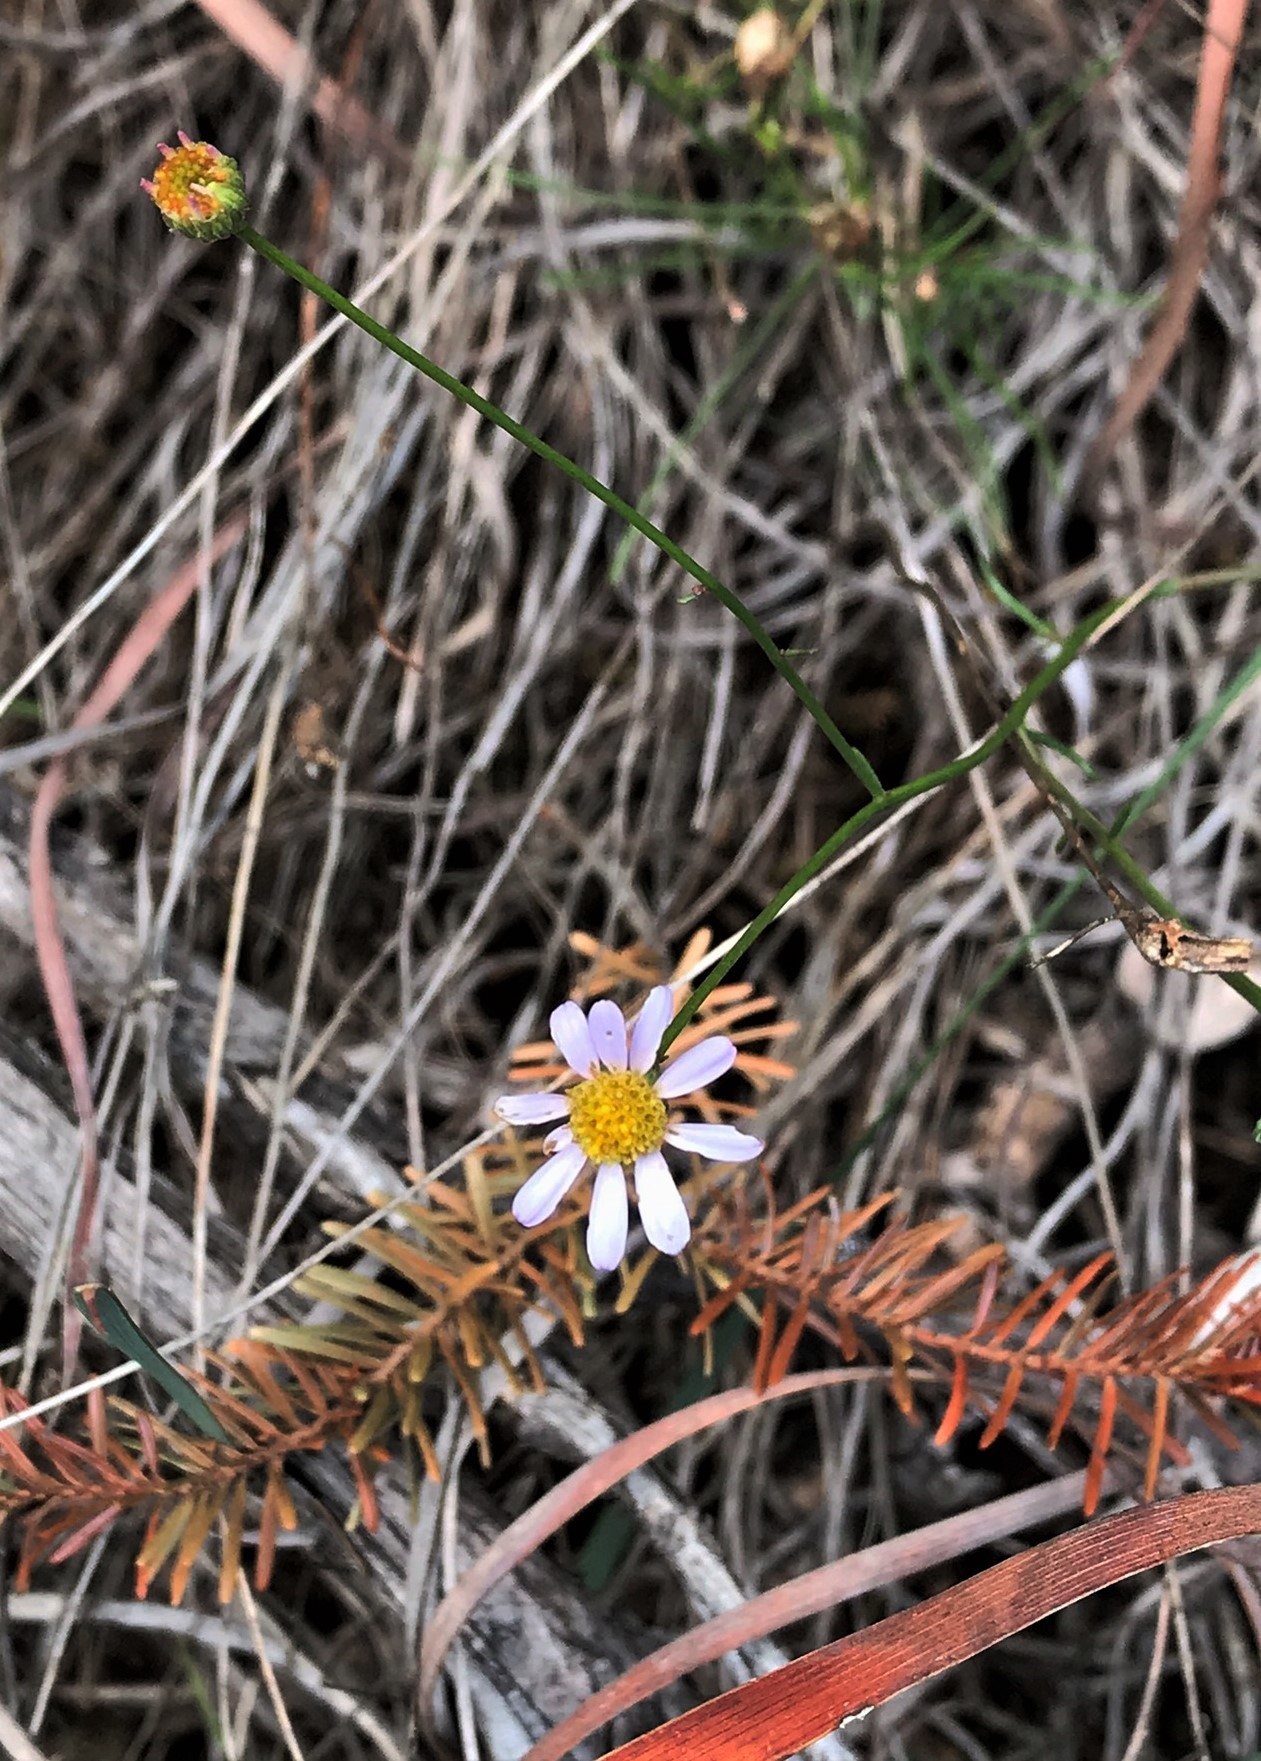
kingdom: Plantae
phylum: Tracheophyta
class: Magnoliopsida
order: Asterales
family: Asteraceae
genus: Erigeron
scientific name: Erigeron serpentinus
